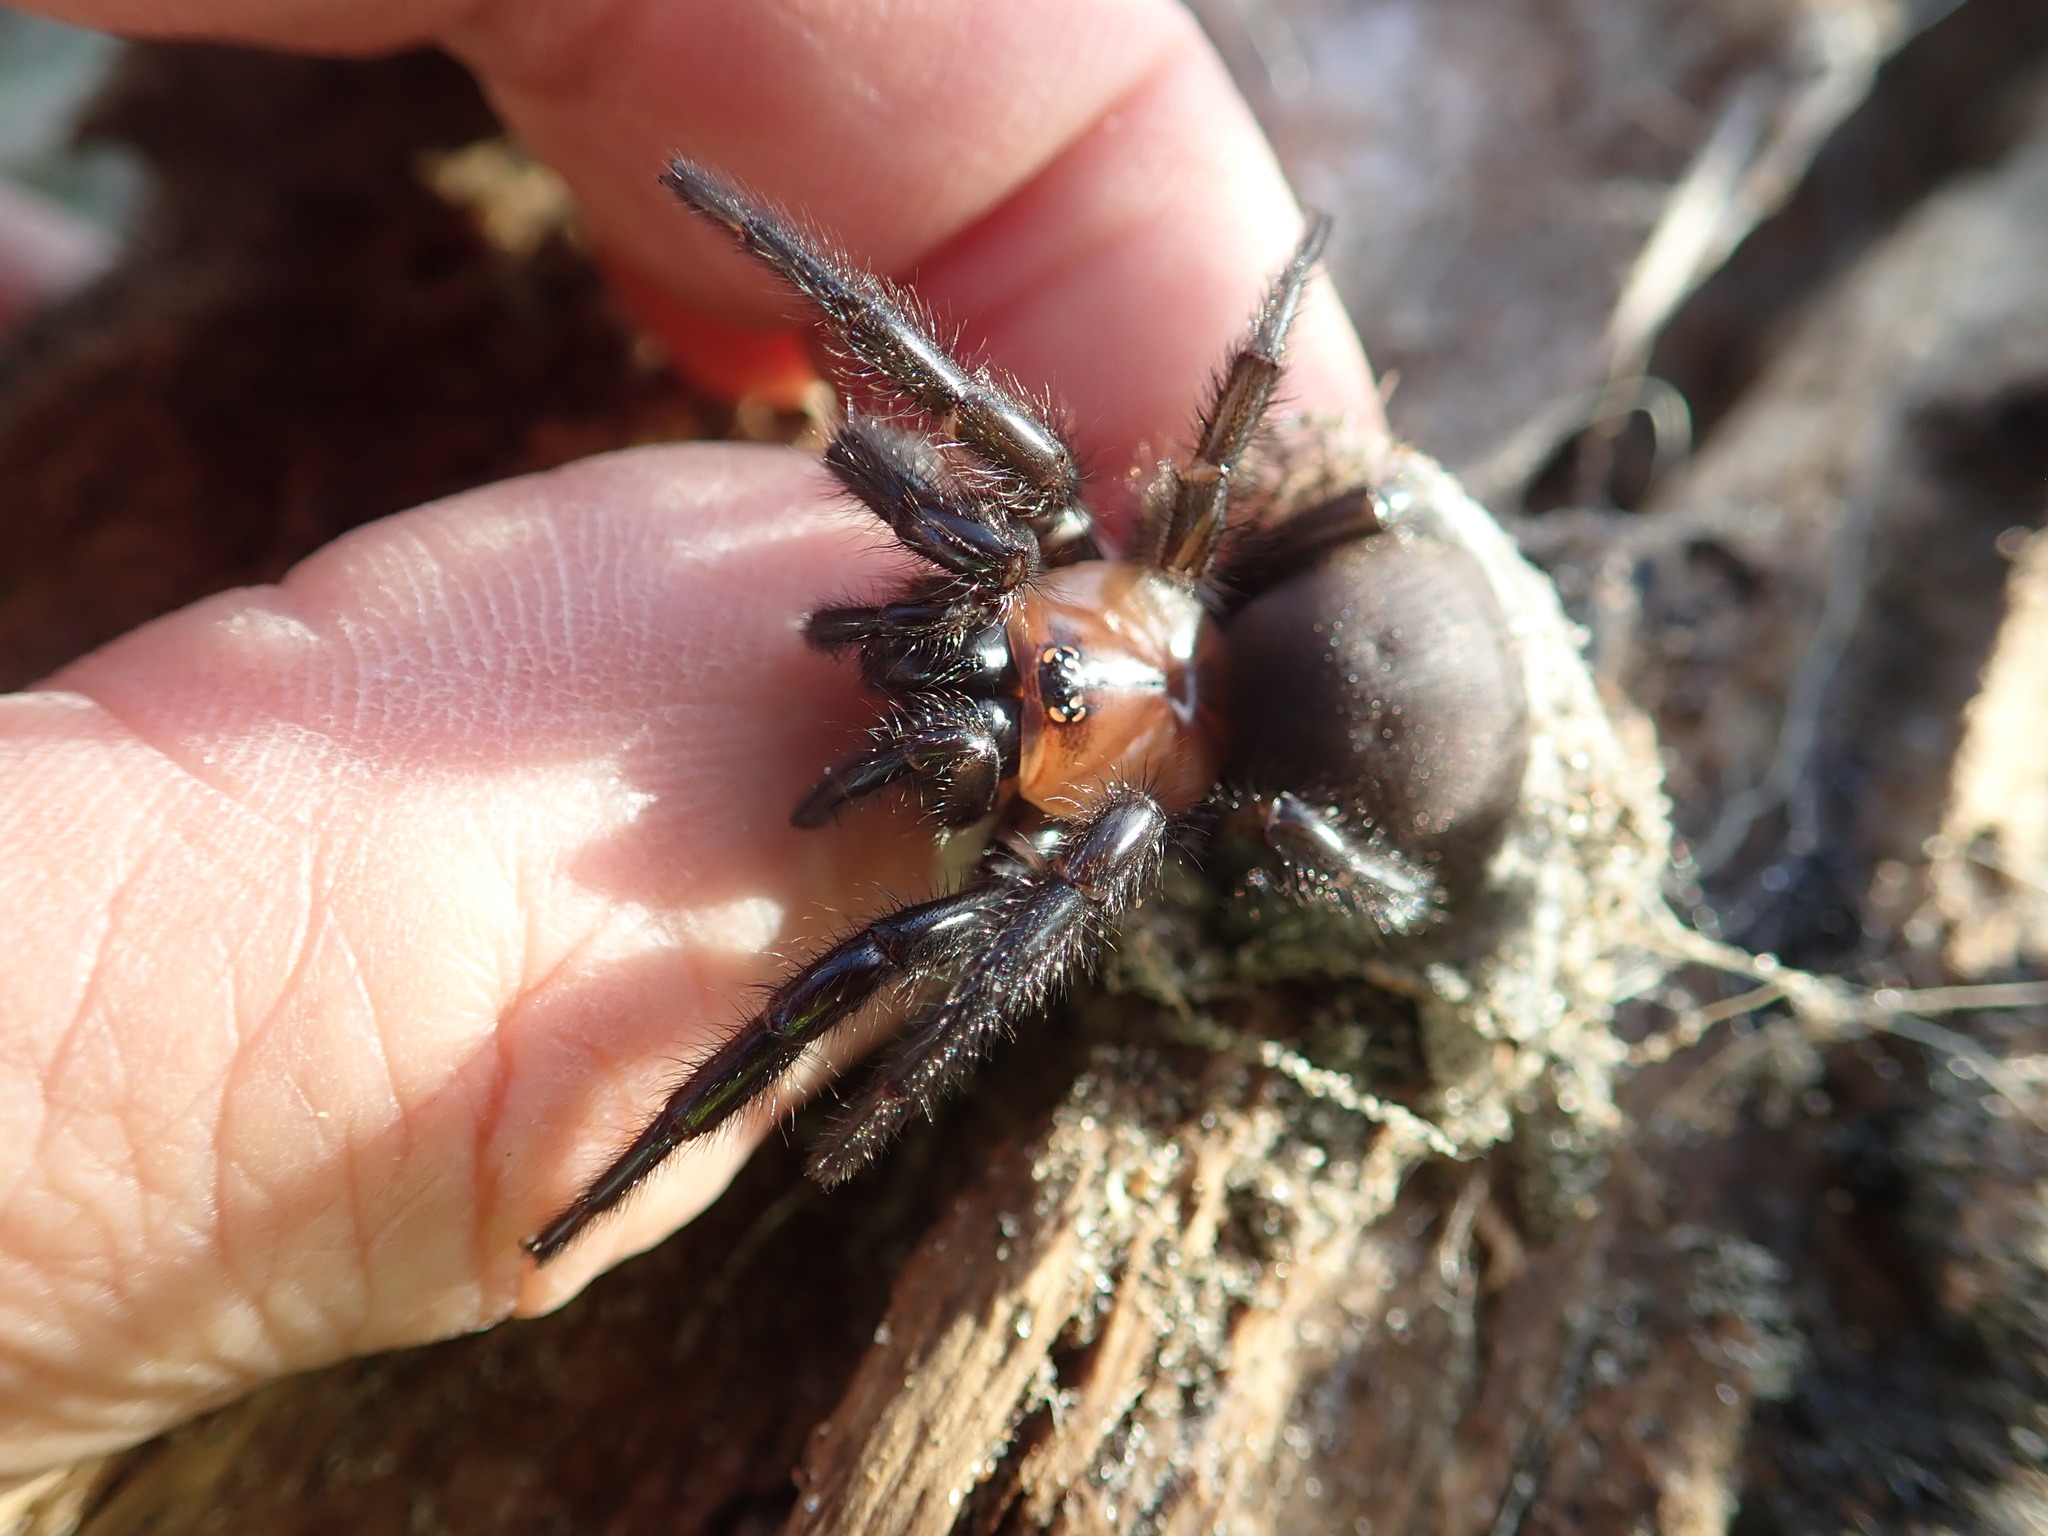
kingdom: Animalia
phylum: Arthropoda
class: Arachnida
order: Araneae
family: Porrhothelidae
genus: Porrhothele
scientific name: Porrhothele antipodiana
